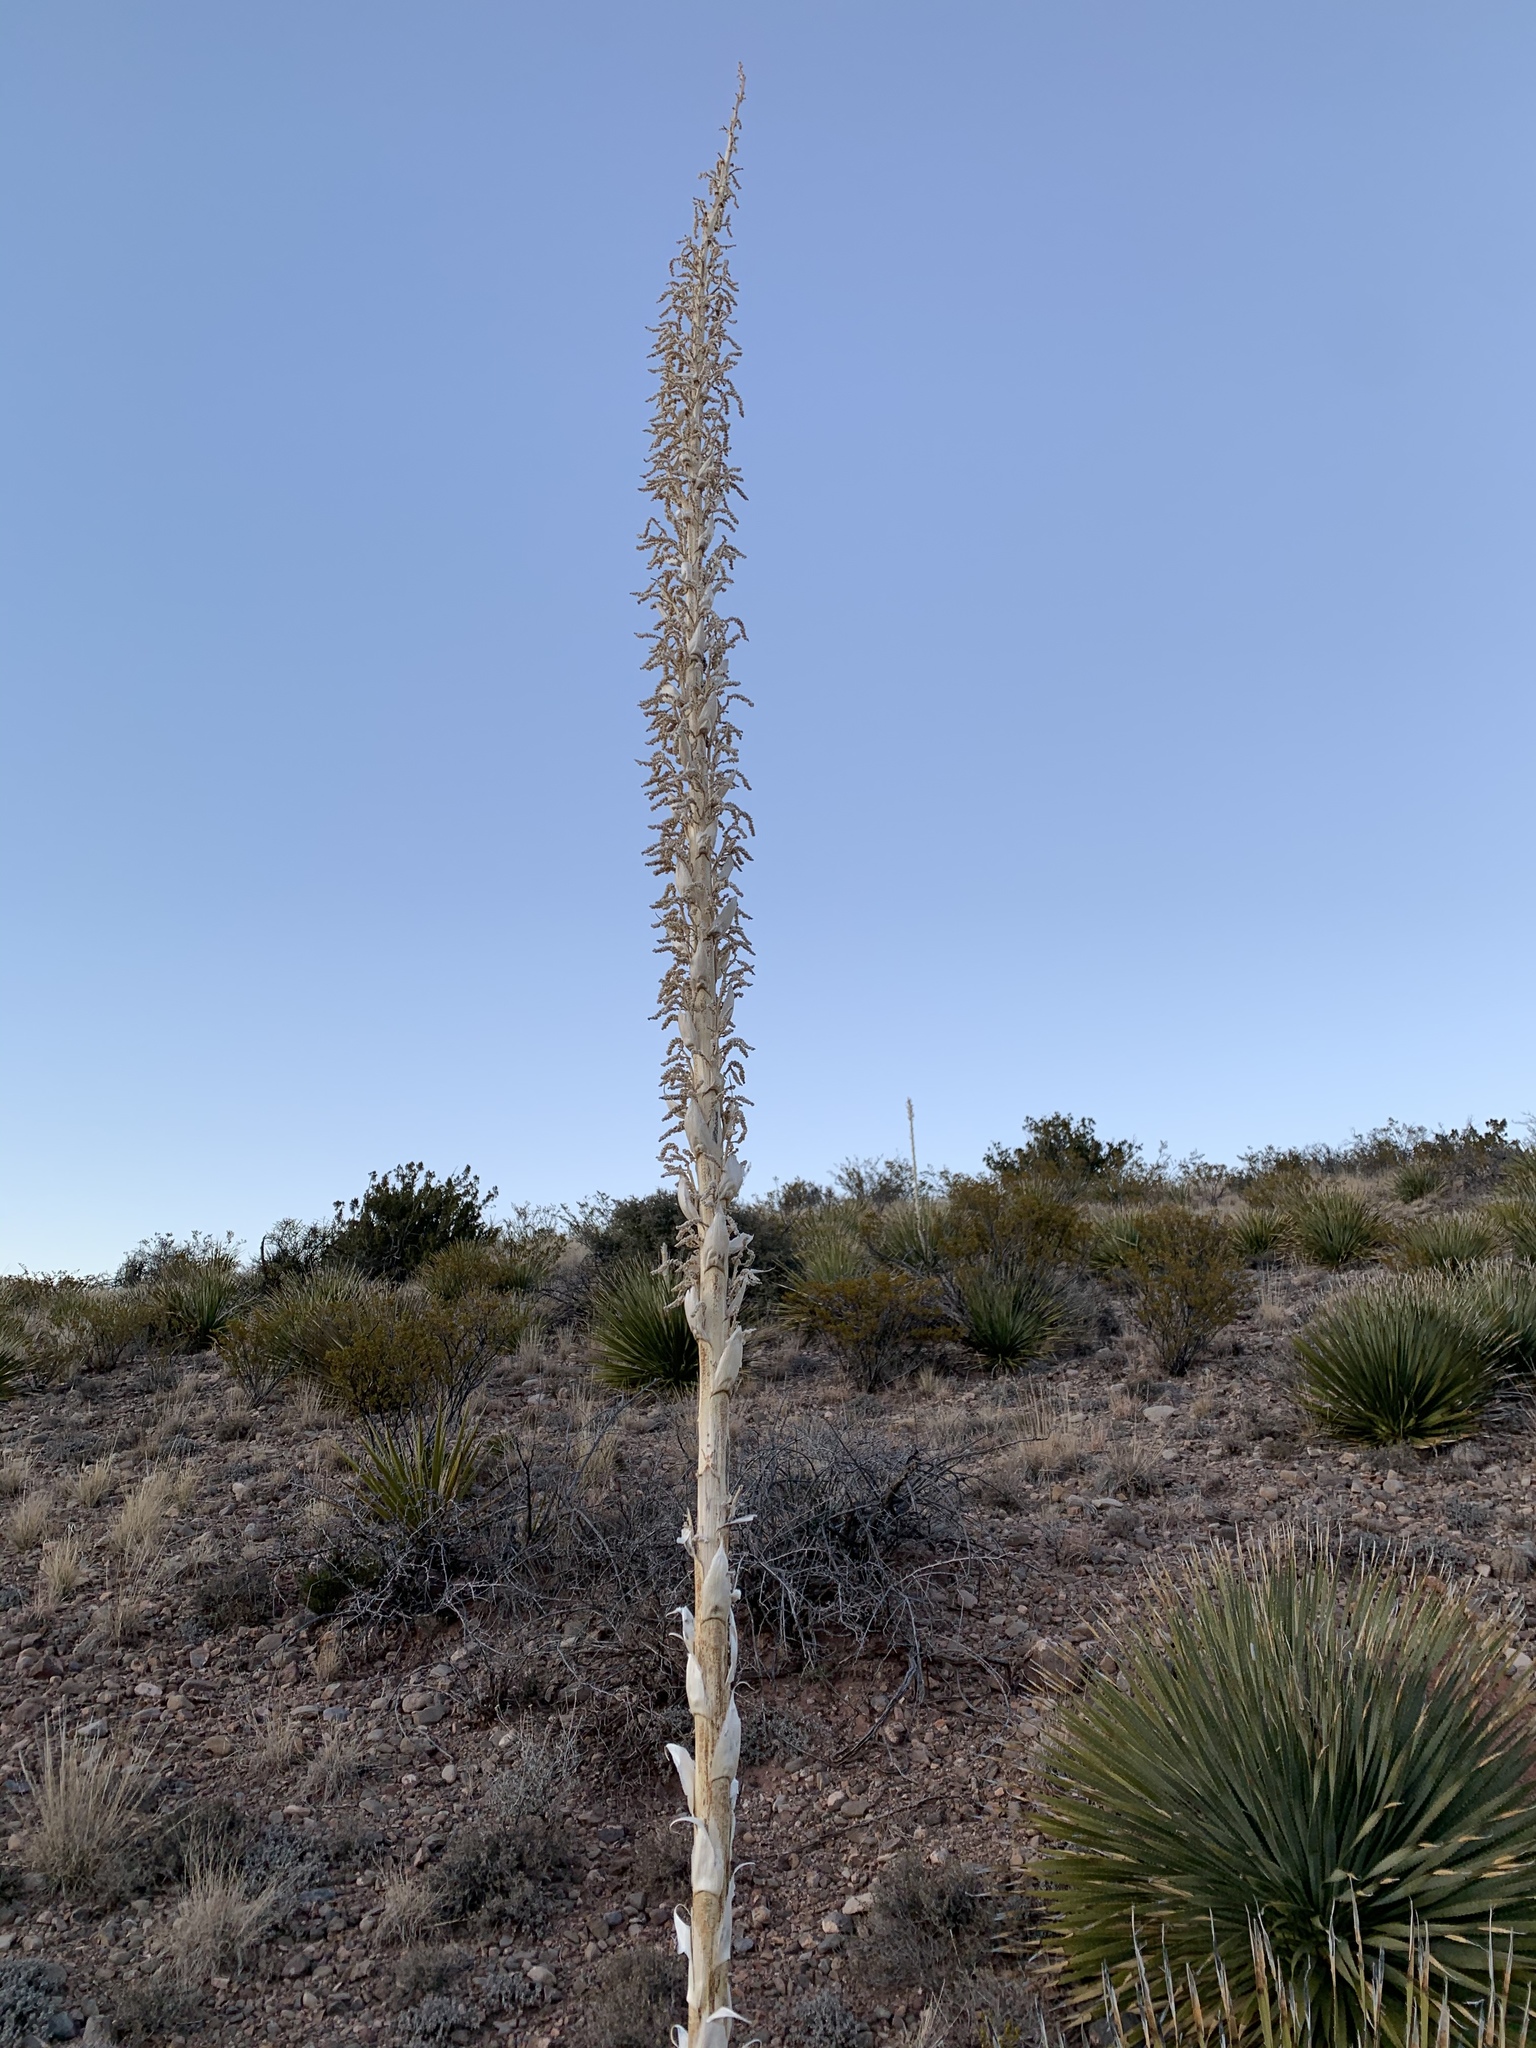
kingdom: Plantae
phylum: Tracheophyta
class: Liliopsida
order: Asparagales
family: Asparagaceae
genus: Dasylirion
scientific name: Dasylirion wheeleri
